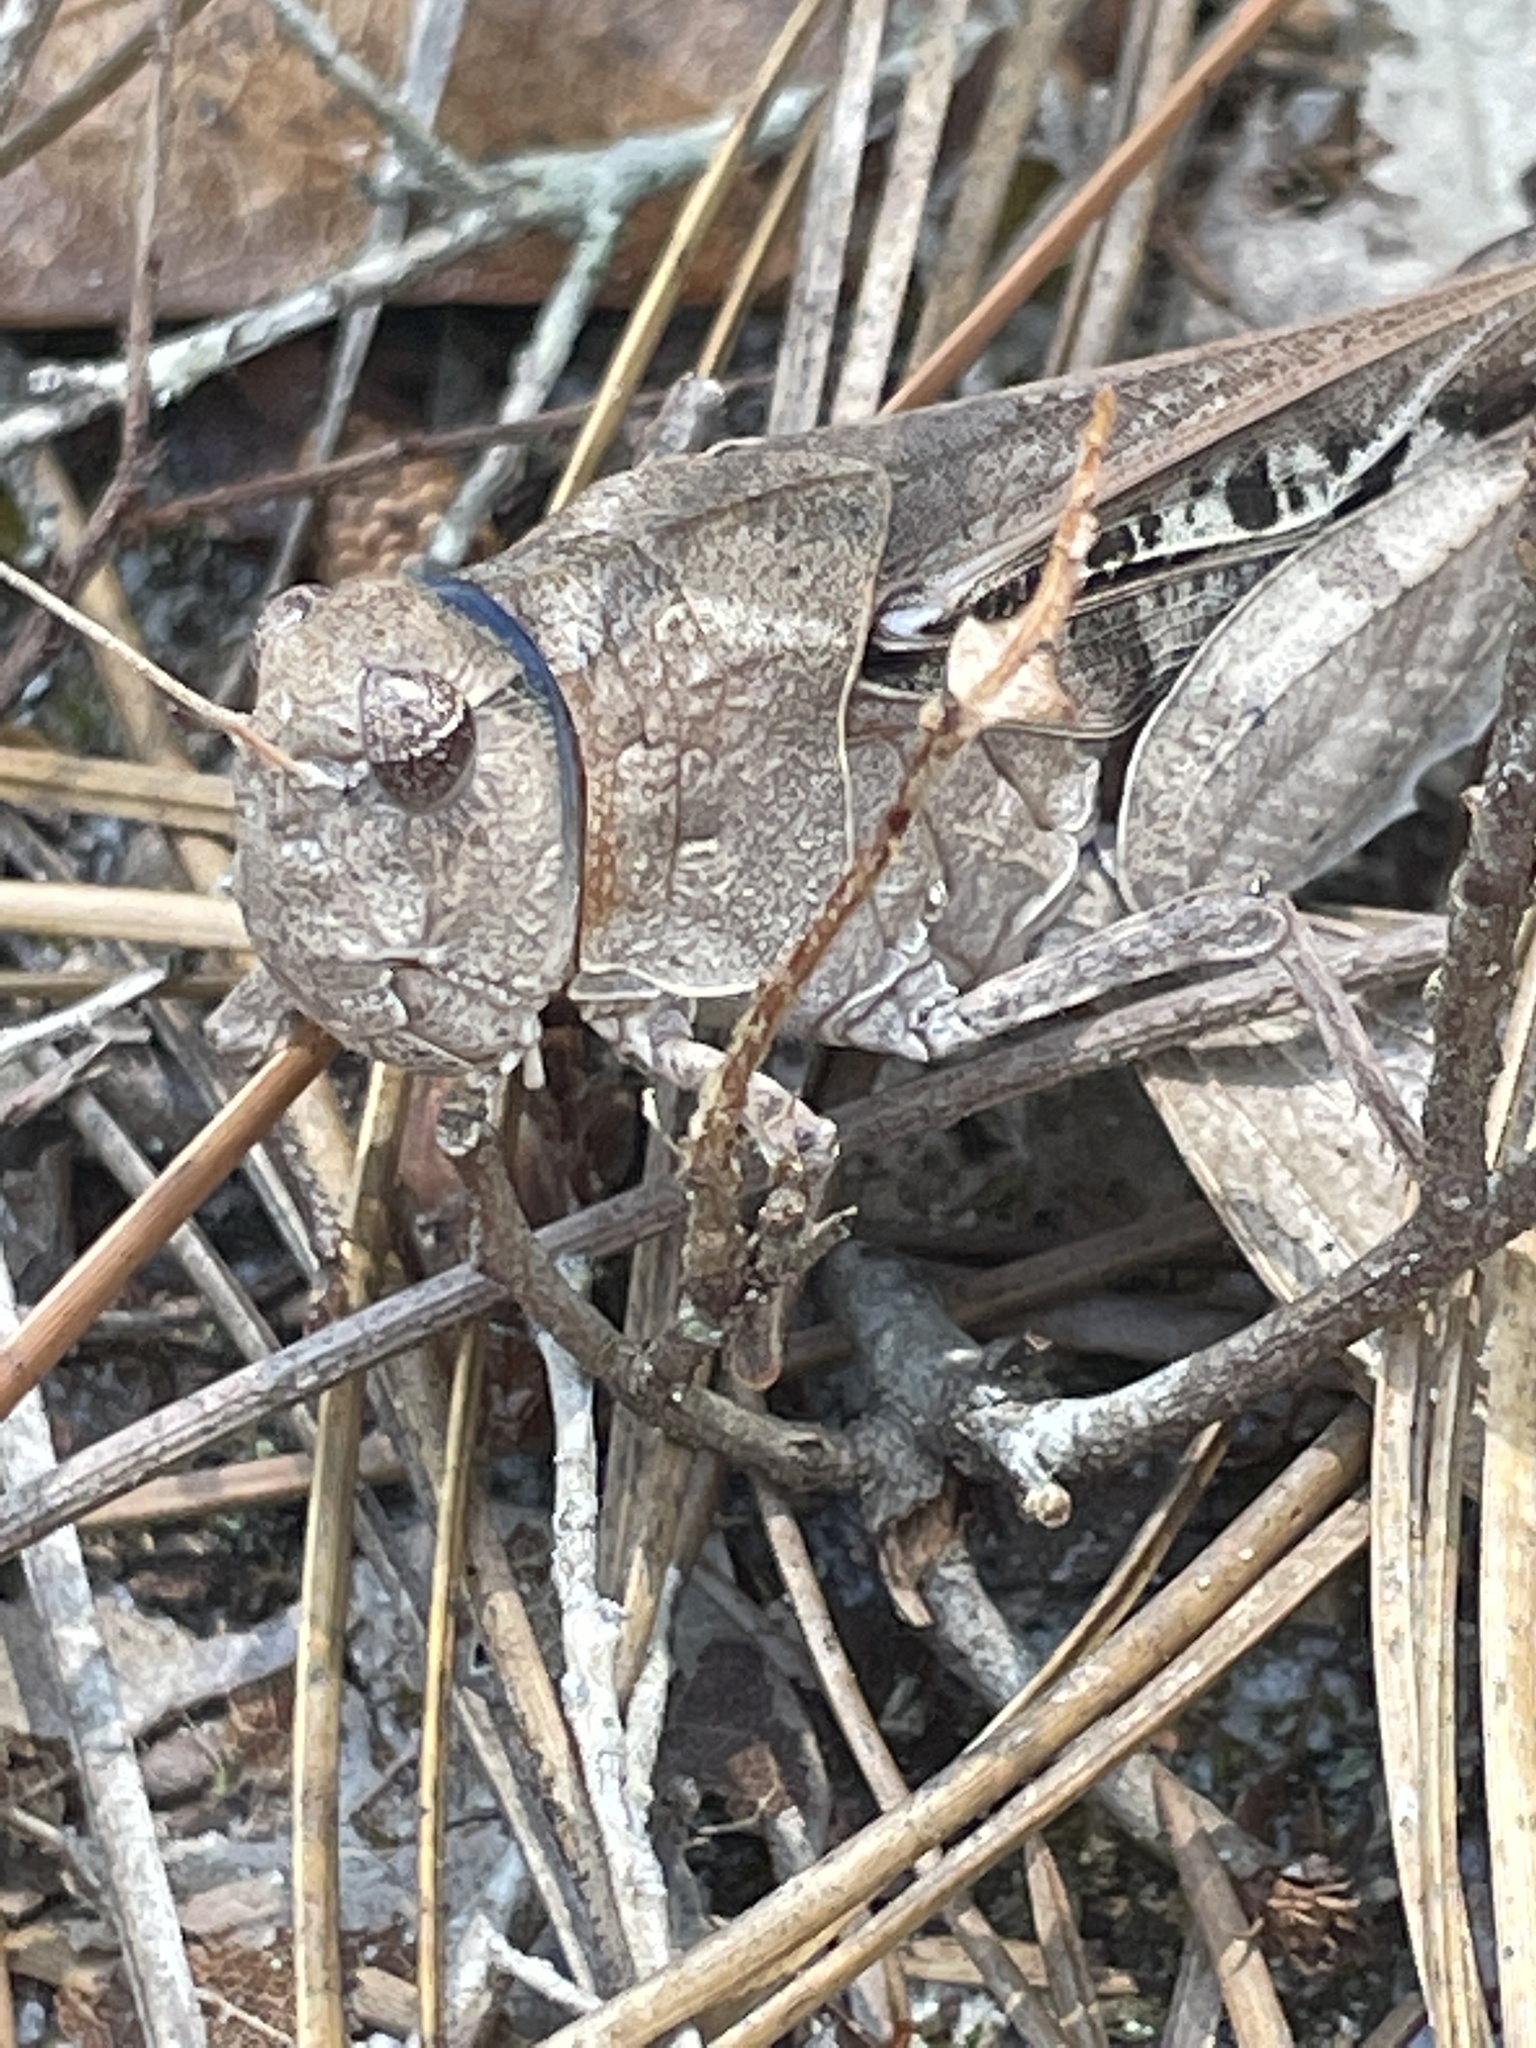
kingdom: Animalia
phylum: Arthropoda
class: Insecta
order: Orthoptera
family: Acrididae
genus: Pardalophora
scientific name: Pardalophora phoenicoptera
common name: Orange-winged grasshopper
